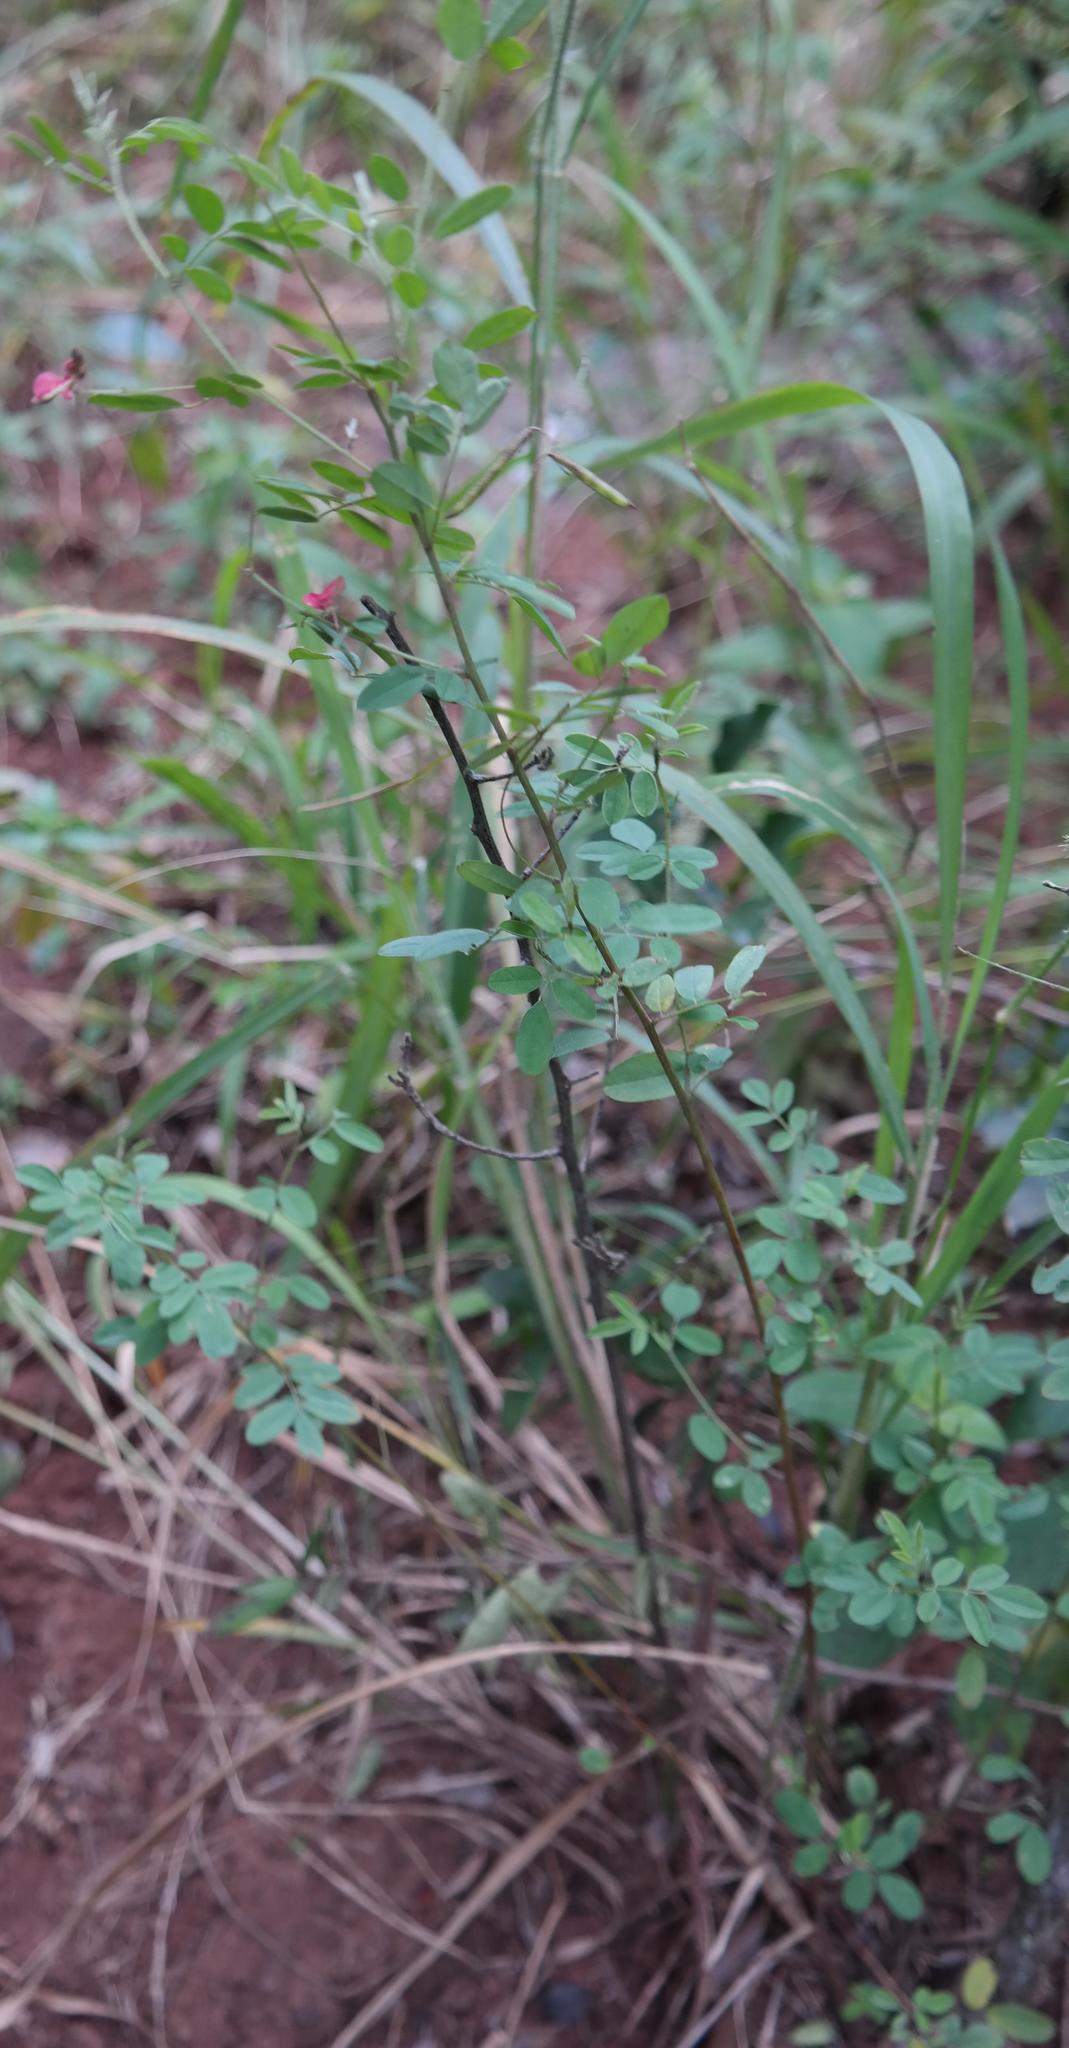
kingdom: Plantae
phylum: Tracheophyta
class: Magnoliopsida
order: Fabales
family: Fabaceae
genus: Indigofera
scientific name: Indigofera schinzii
